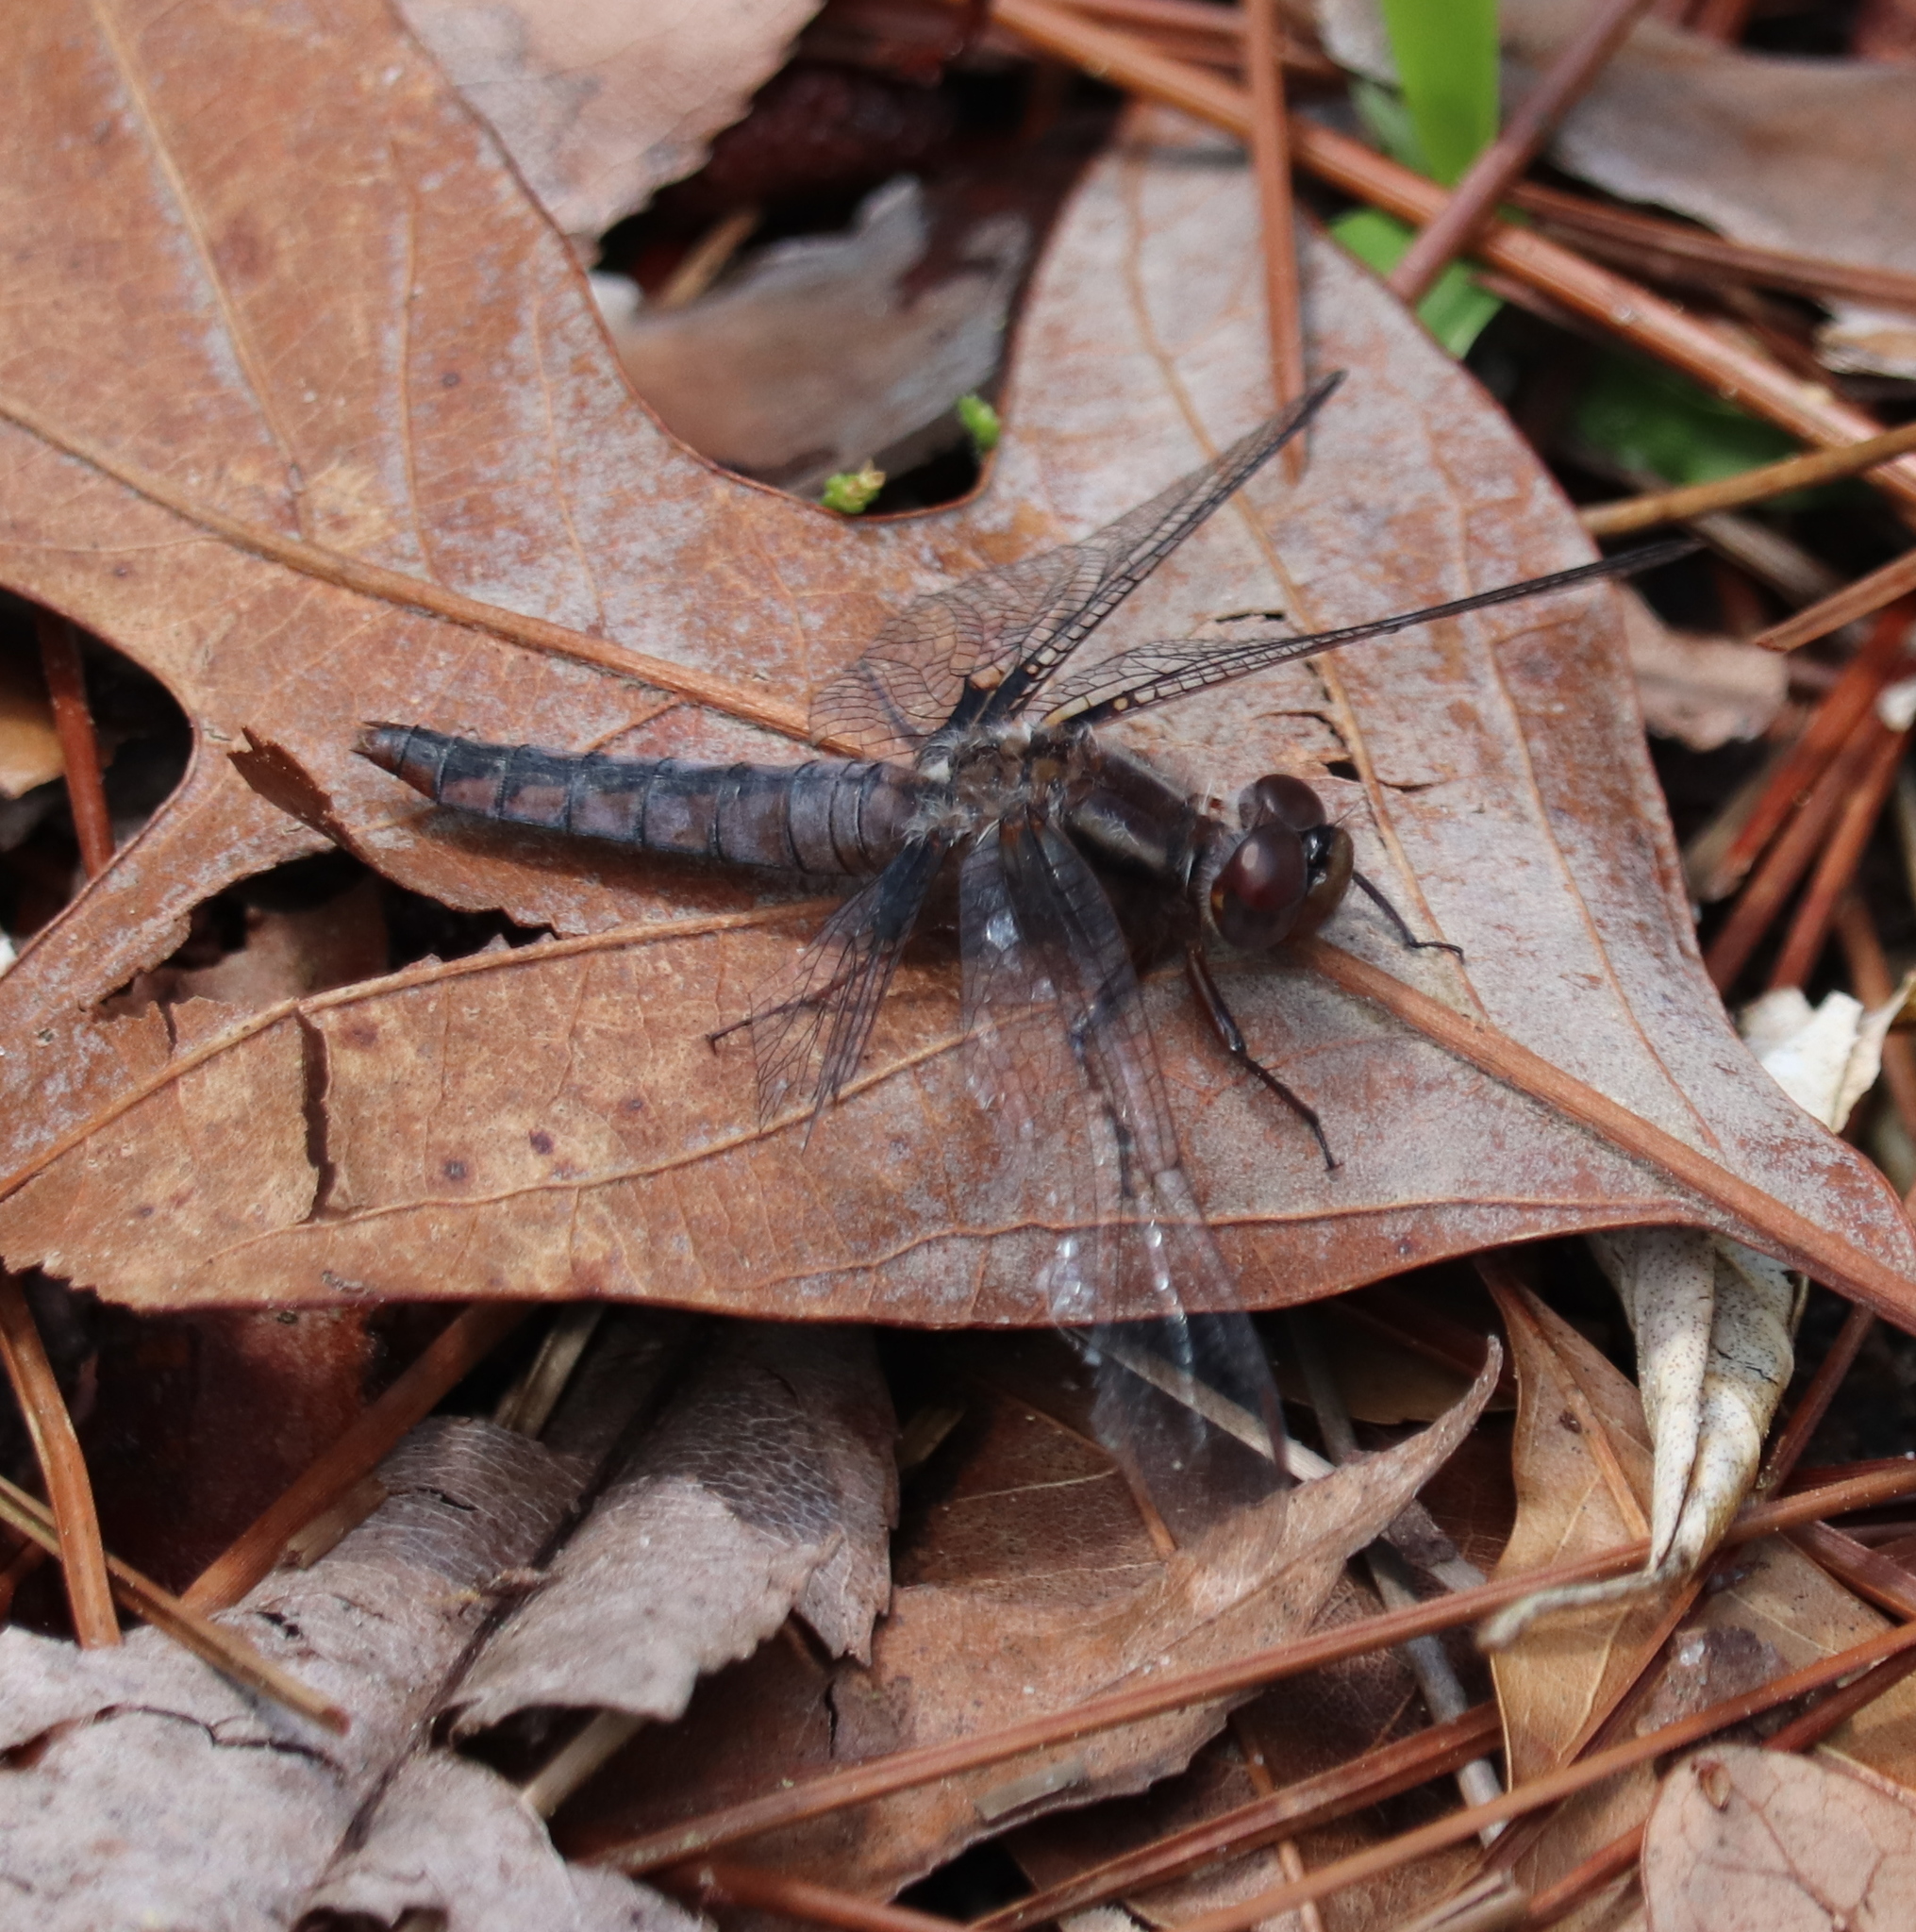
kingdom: Animalia
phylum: Arthropoda
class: Insecta
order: Odonata
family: Libellulidae
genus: Ladona
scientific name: Ladona deplanata
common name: Blue corporal
